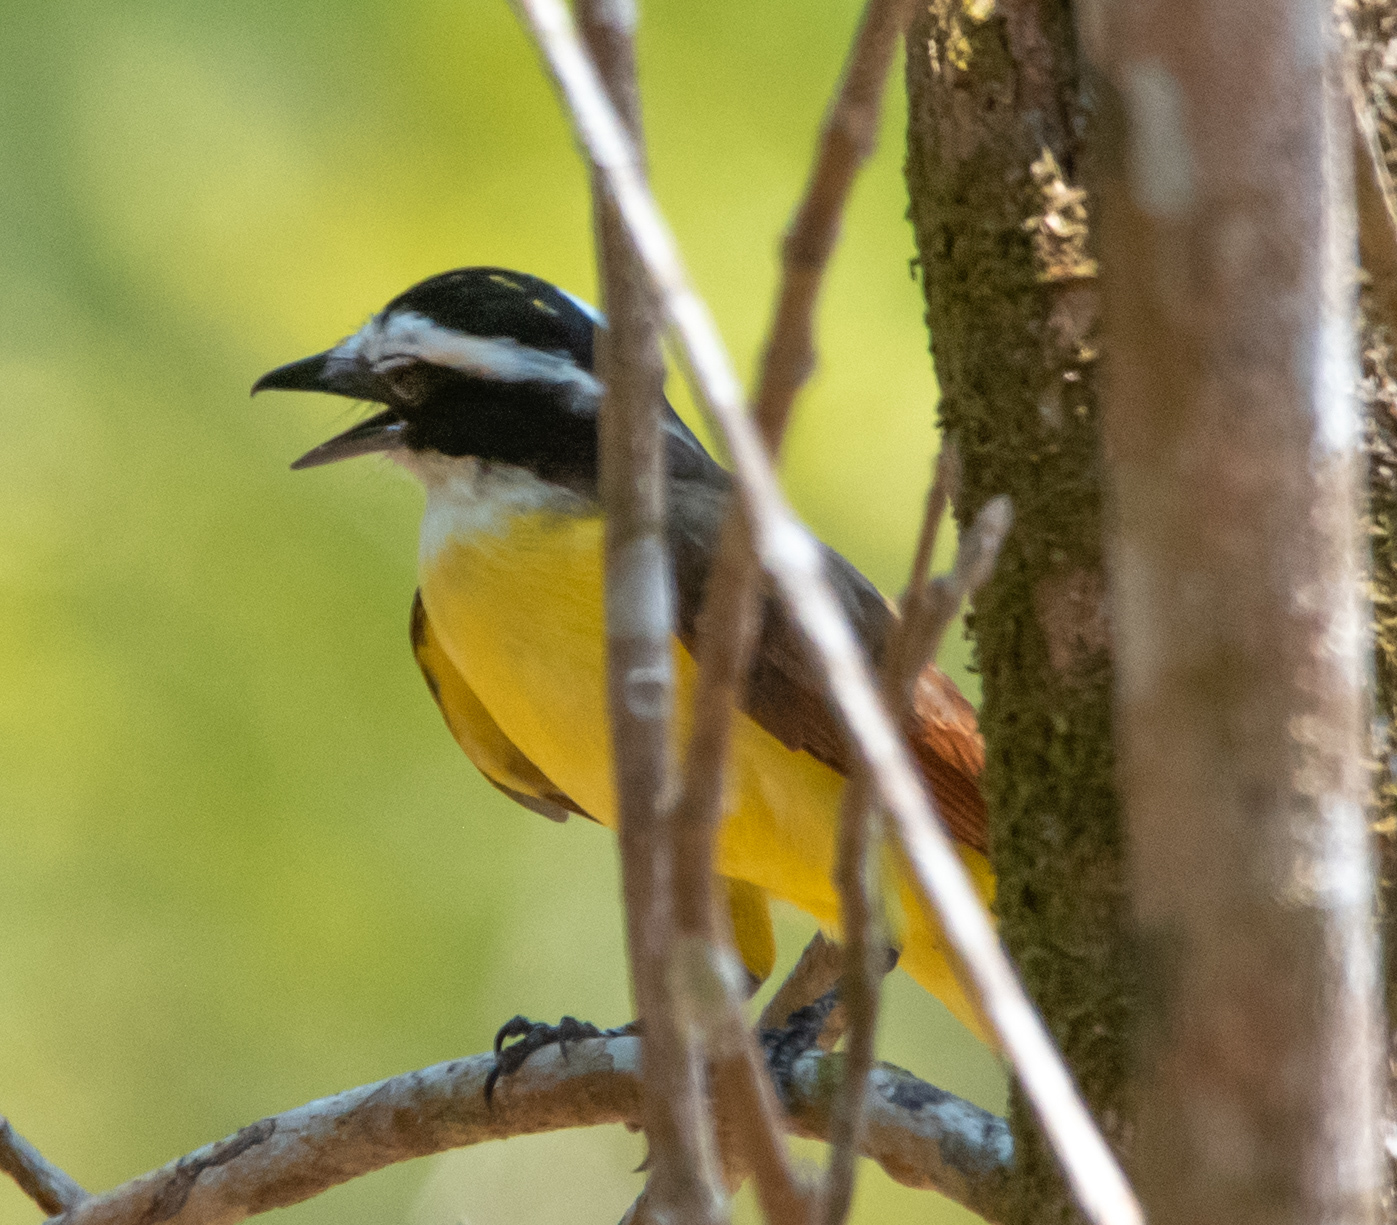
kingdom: Animalia
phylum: Chordata
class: Aves
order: Passeriformes
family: Tyrannidae
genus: Pitangus
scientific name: Pitangus sulphuratus
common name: Great kiskadee
